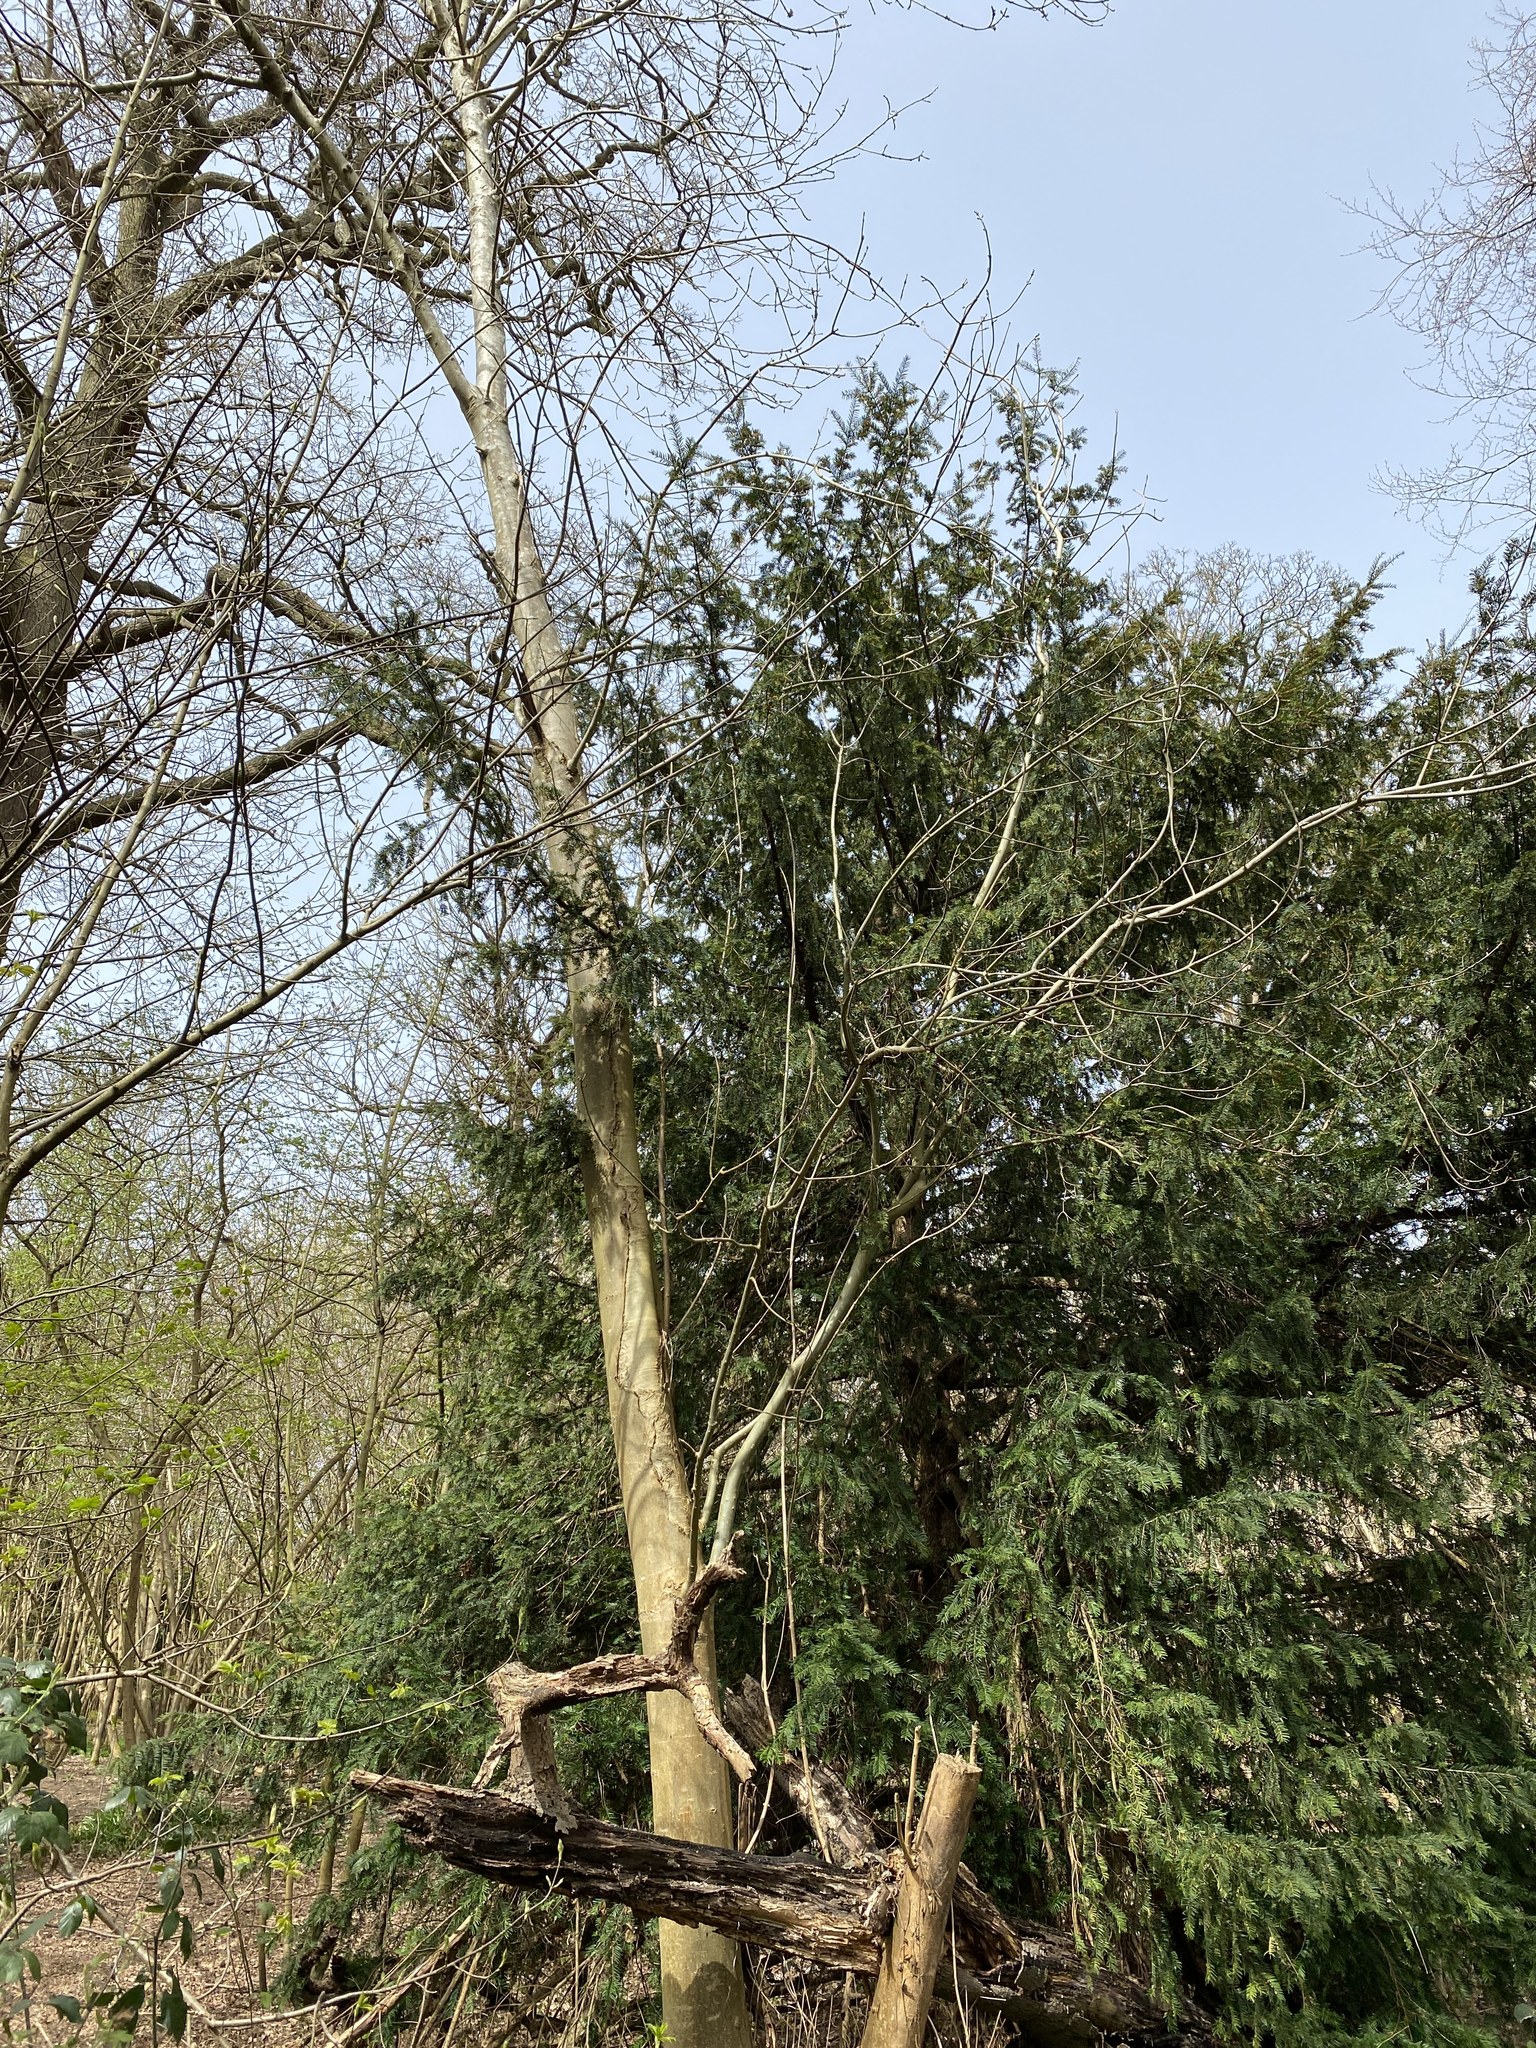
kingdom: Animalia
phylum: Chordata
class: Aves
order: Passeriformes
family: Muscicapidae
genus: Erithacus
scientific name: Erithacus rubecula
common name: European robin
